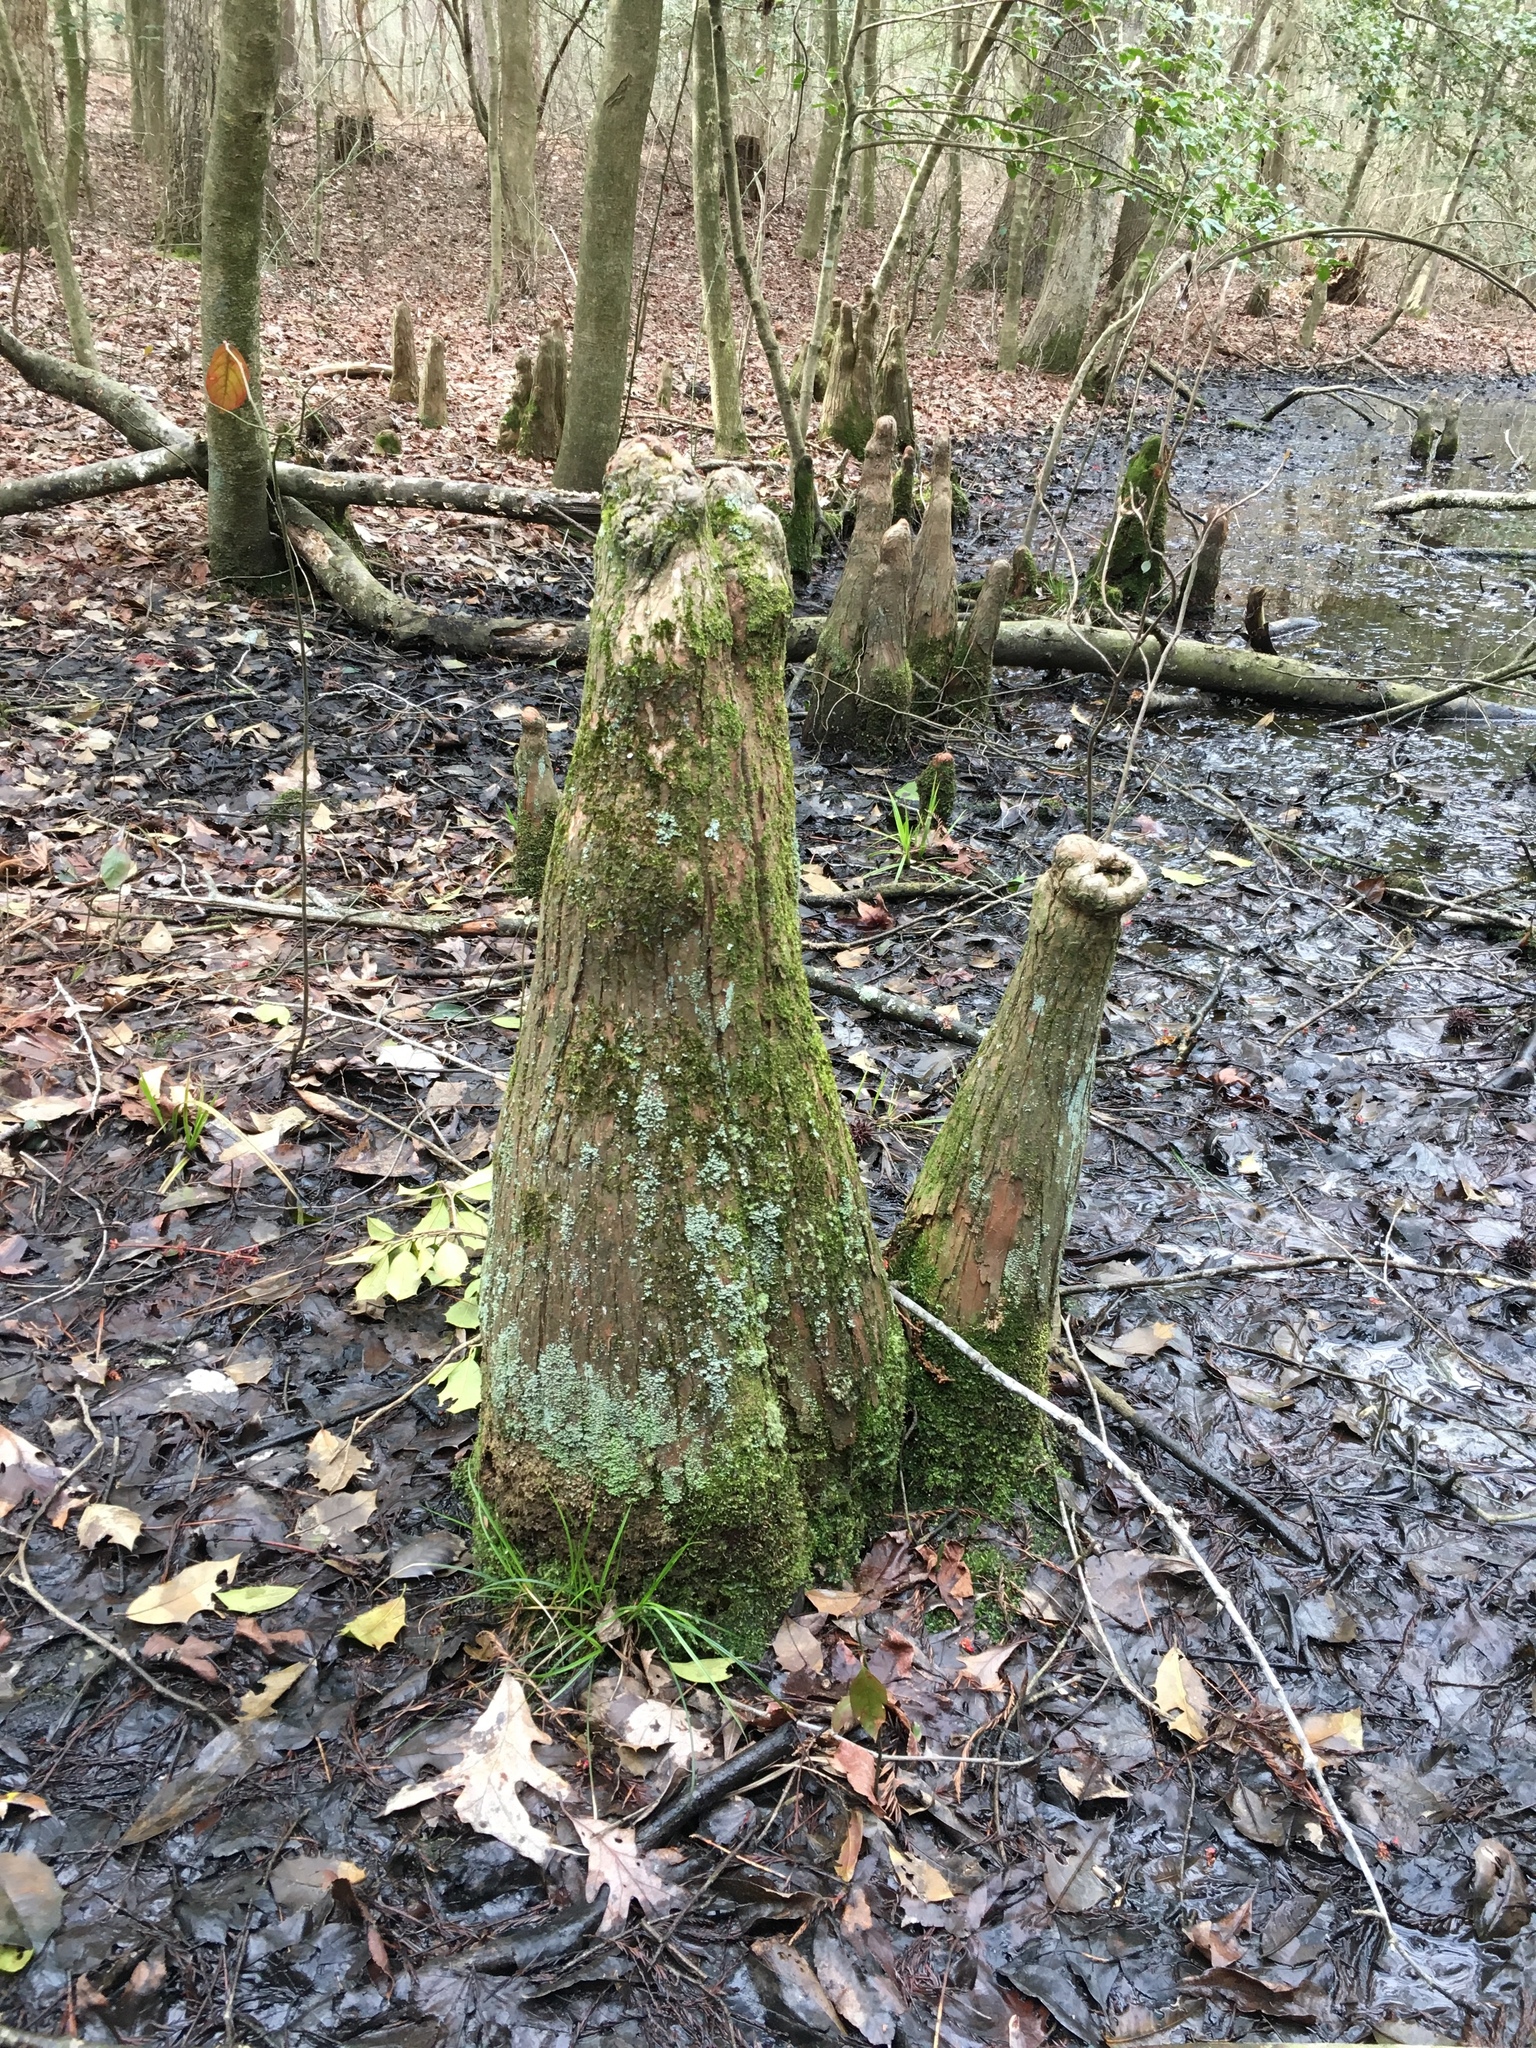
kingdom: Plantae
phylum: Tracheophyta
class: Pinopsida
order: Pinales
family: Cupressaceae
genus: Taxodium
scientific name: Taxodium distichum
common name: Bald cypress
